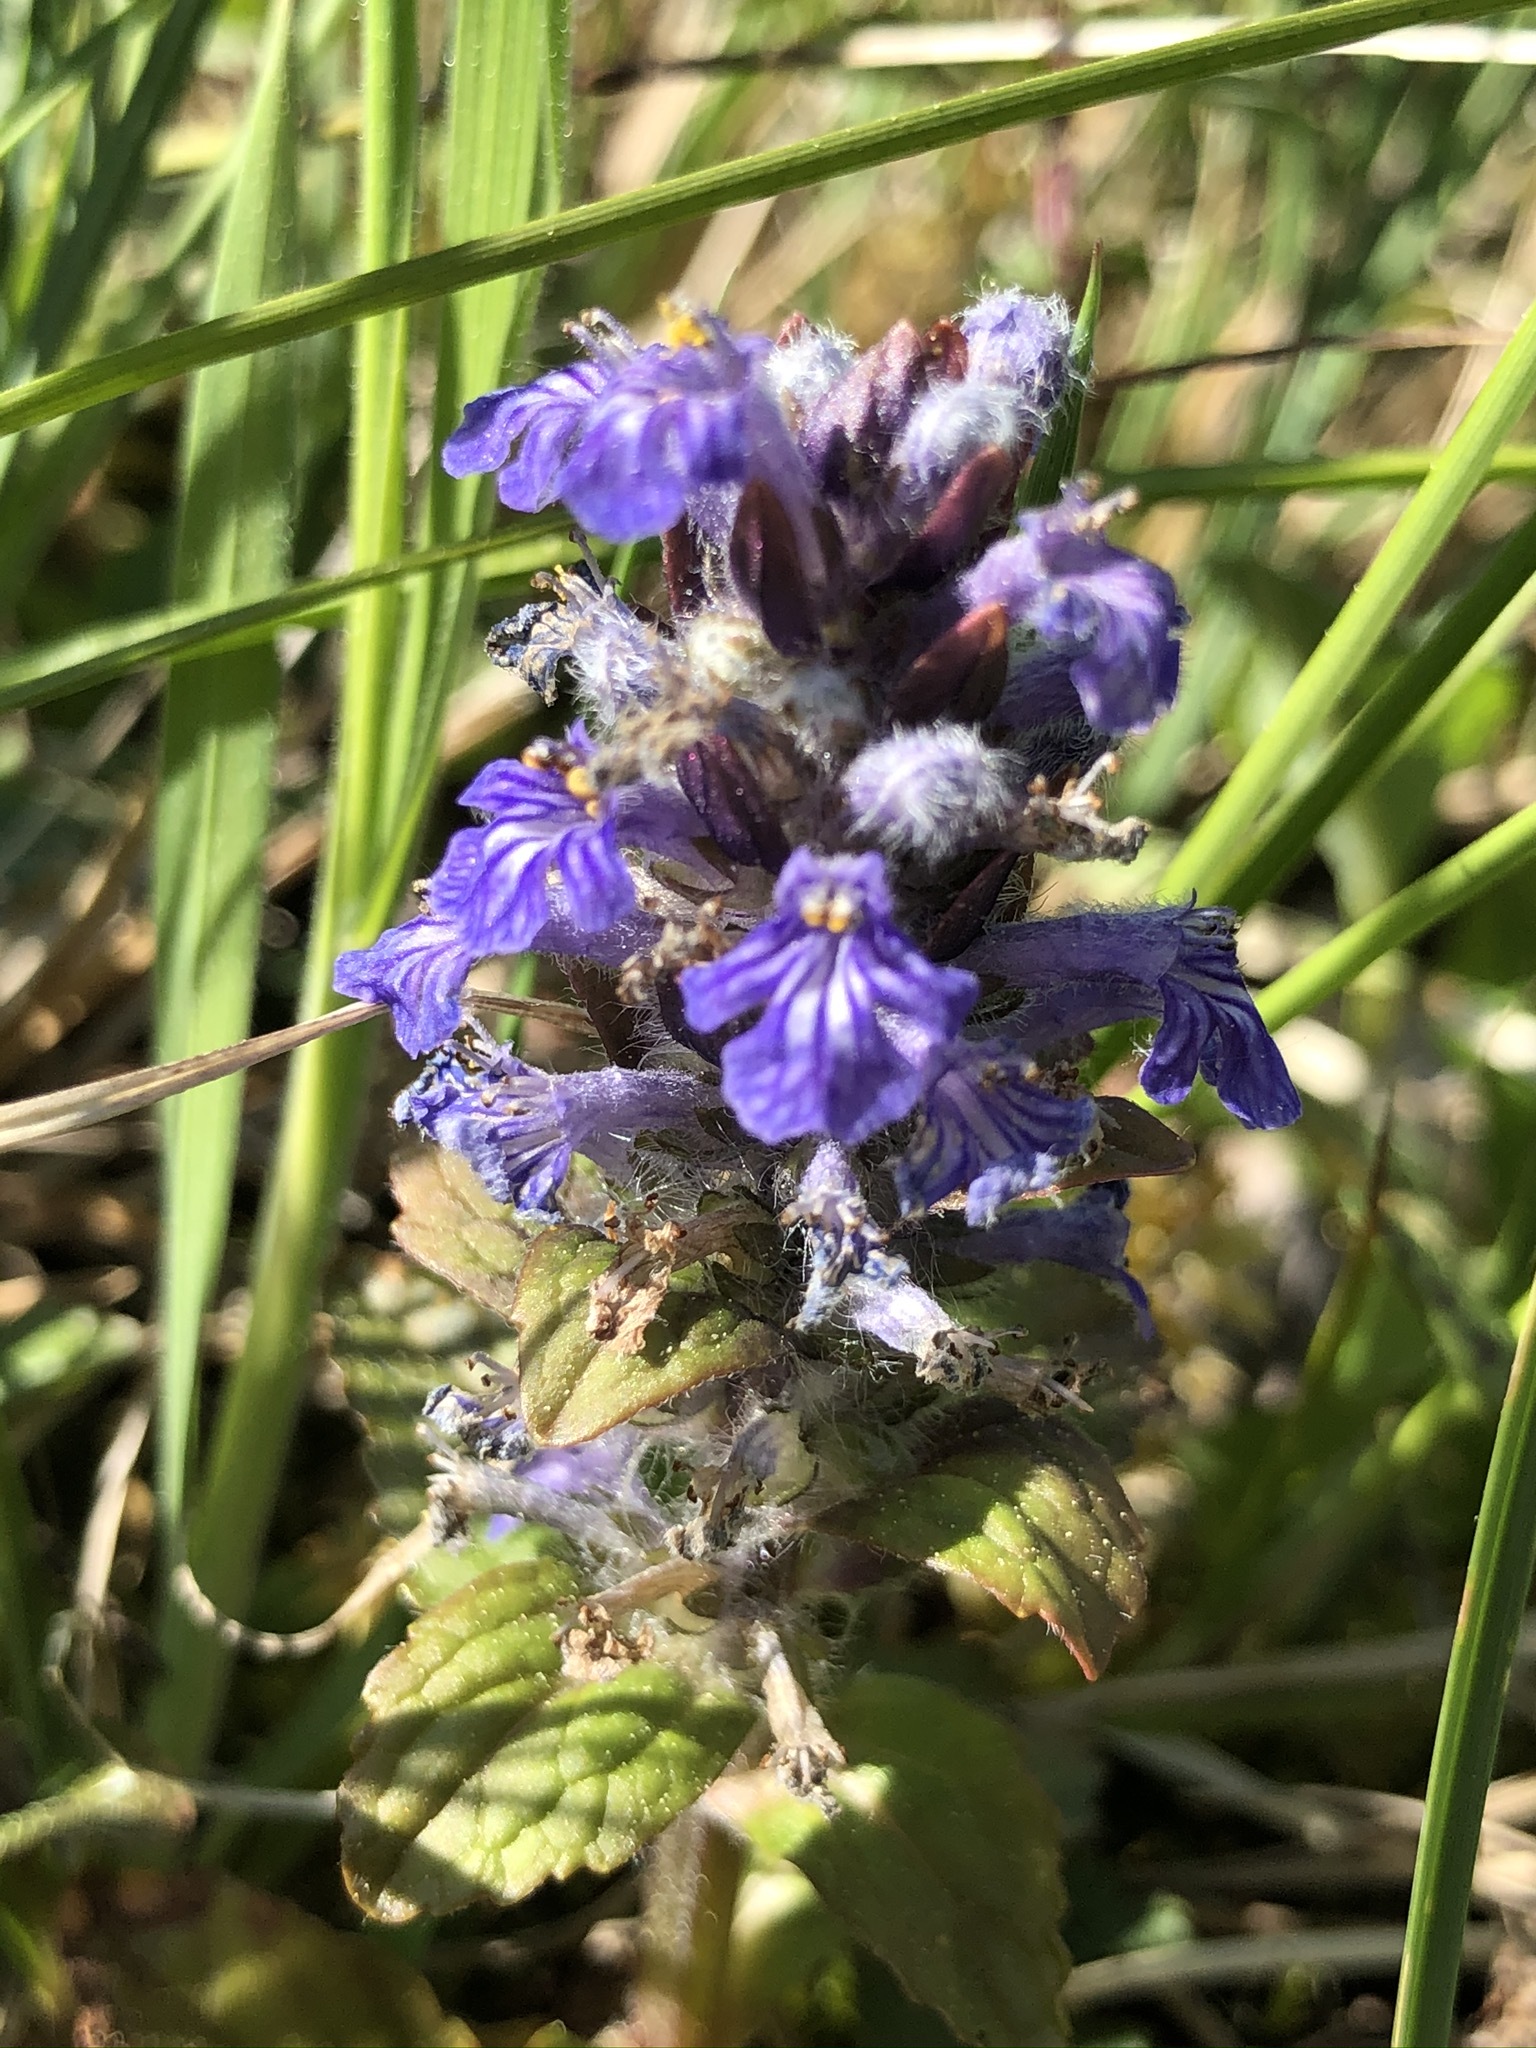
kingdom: Plantae
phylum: Tracheophyta
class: Magnoliopsida
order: Lamiales
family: Lamiaceae
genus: Ajuga
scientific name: Ajuga reptans
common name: Bugle
